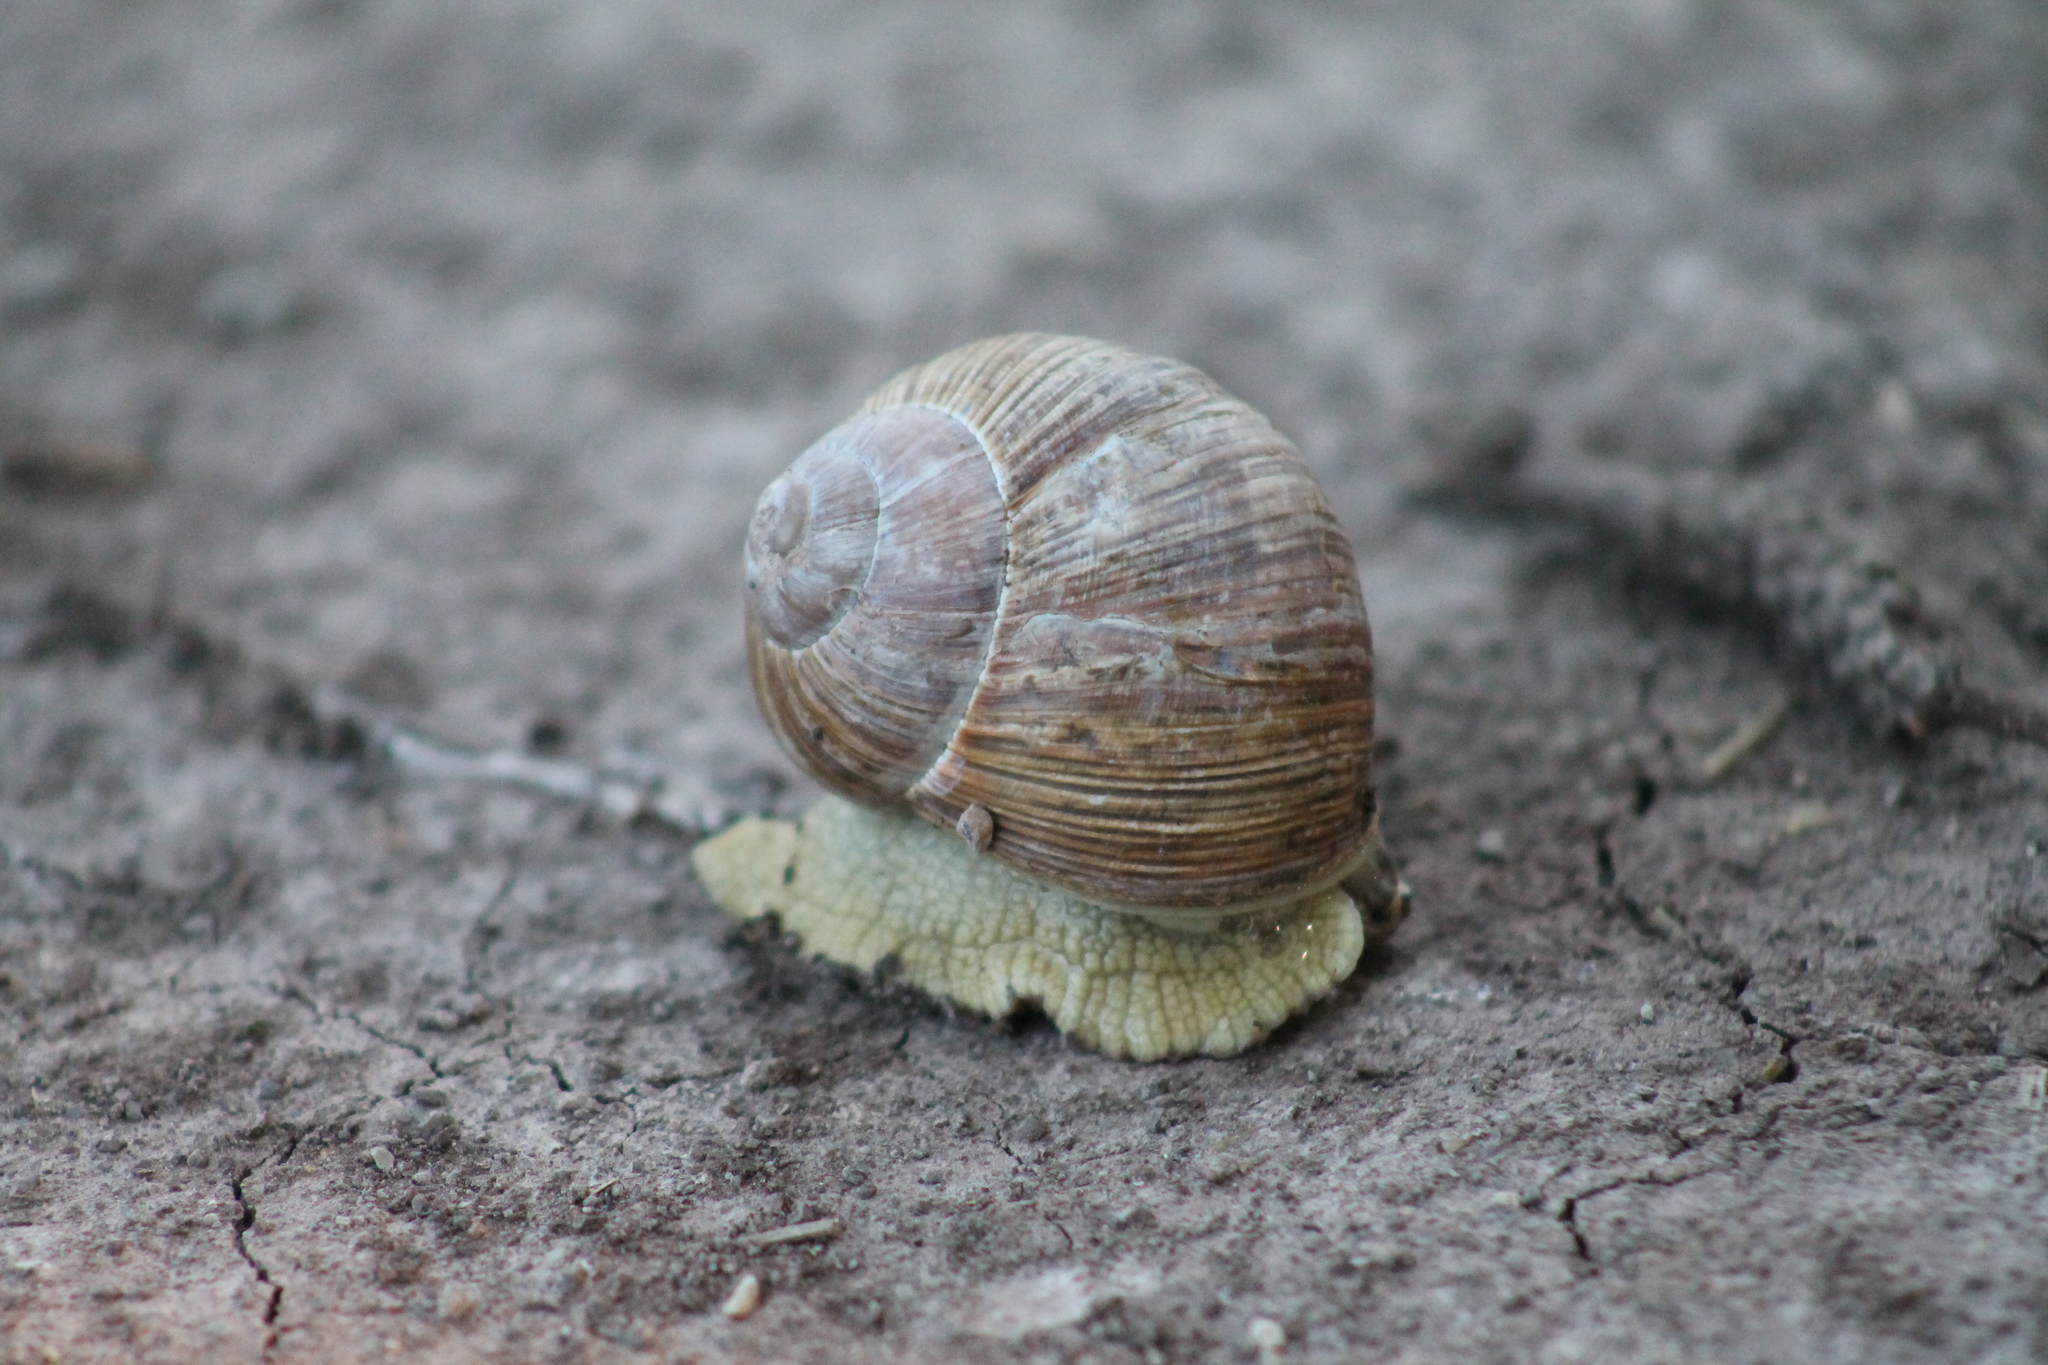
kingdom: Animalia
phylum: Mollusca
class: Gastropoda
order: Stylommatophora
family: Helicidae
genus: Helix
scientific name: Helix pomatia
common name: Roman snail
